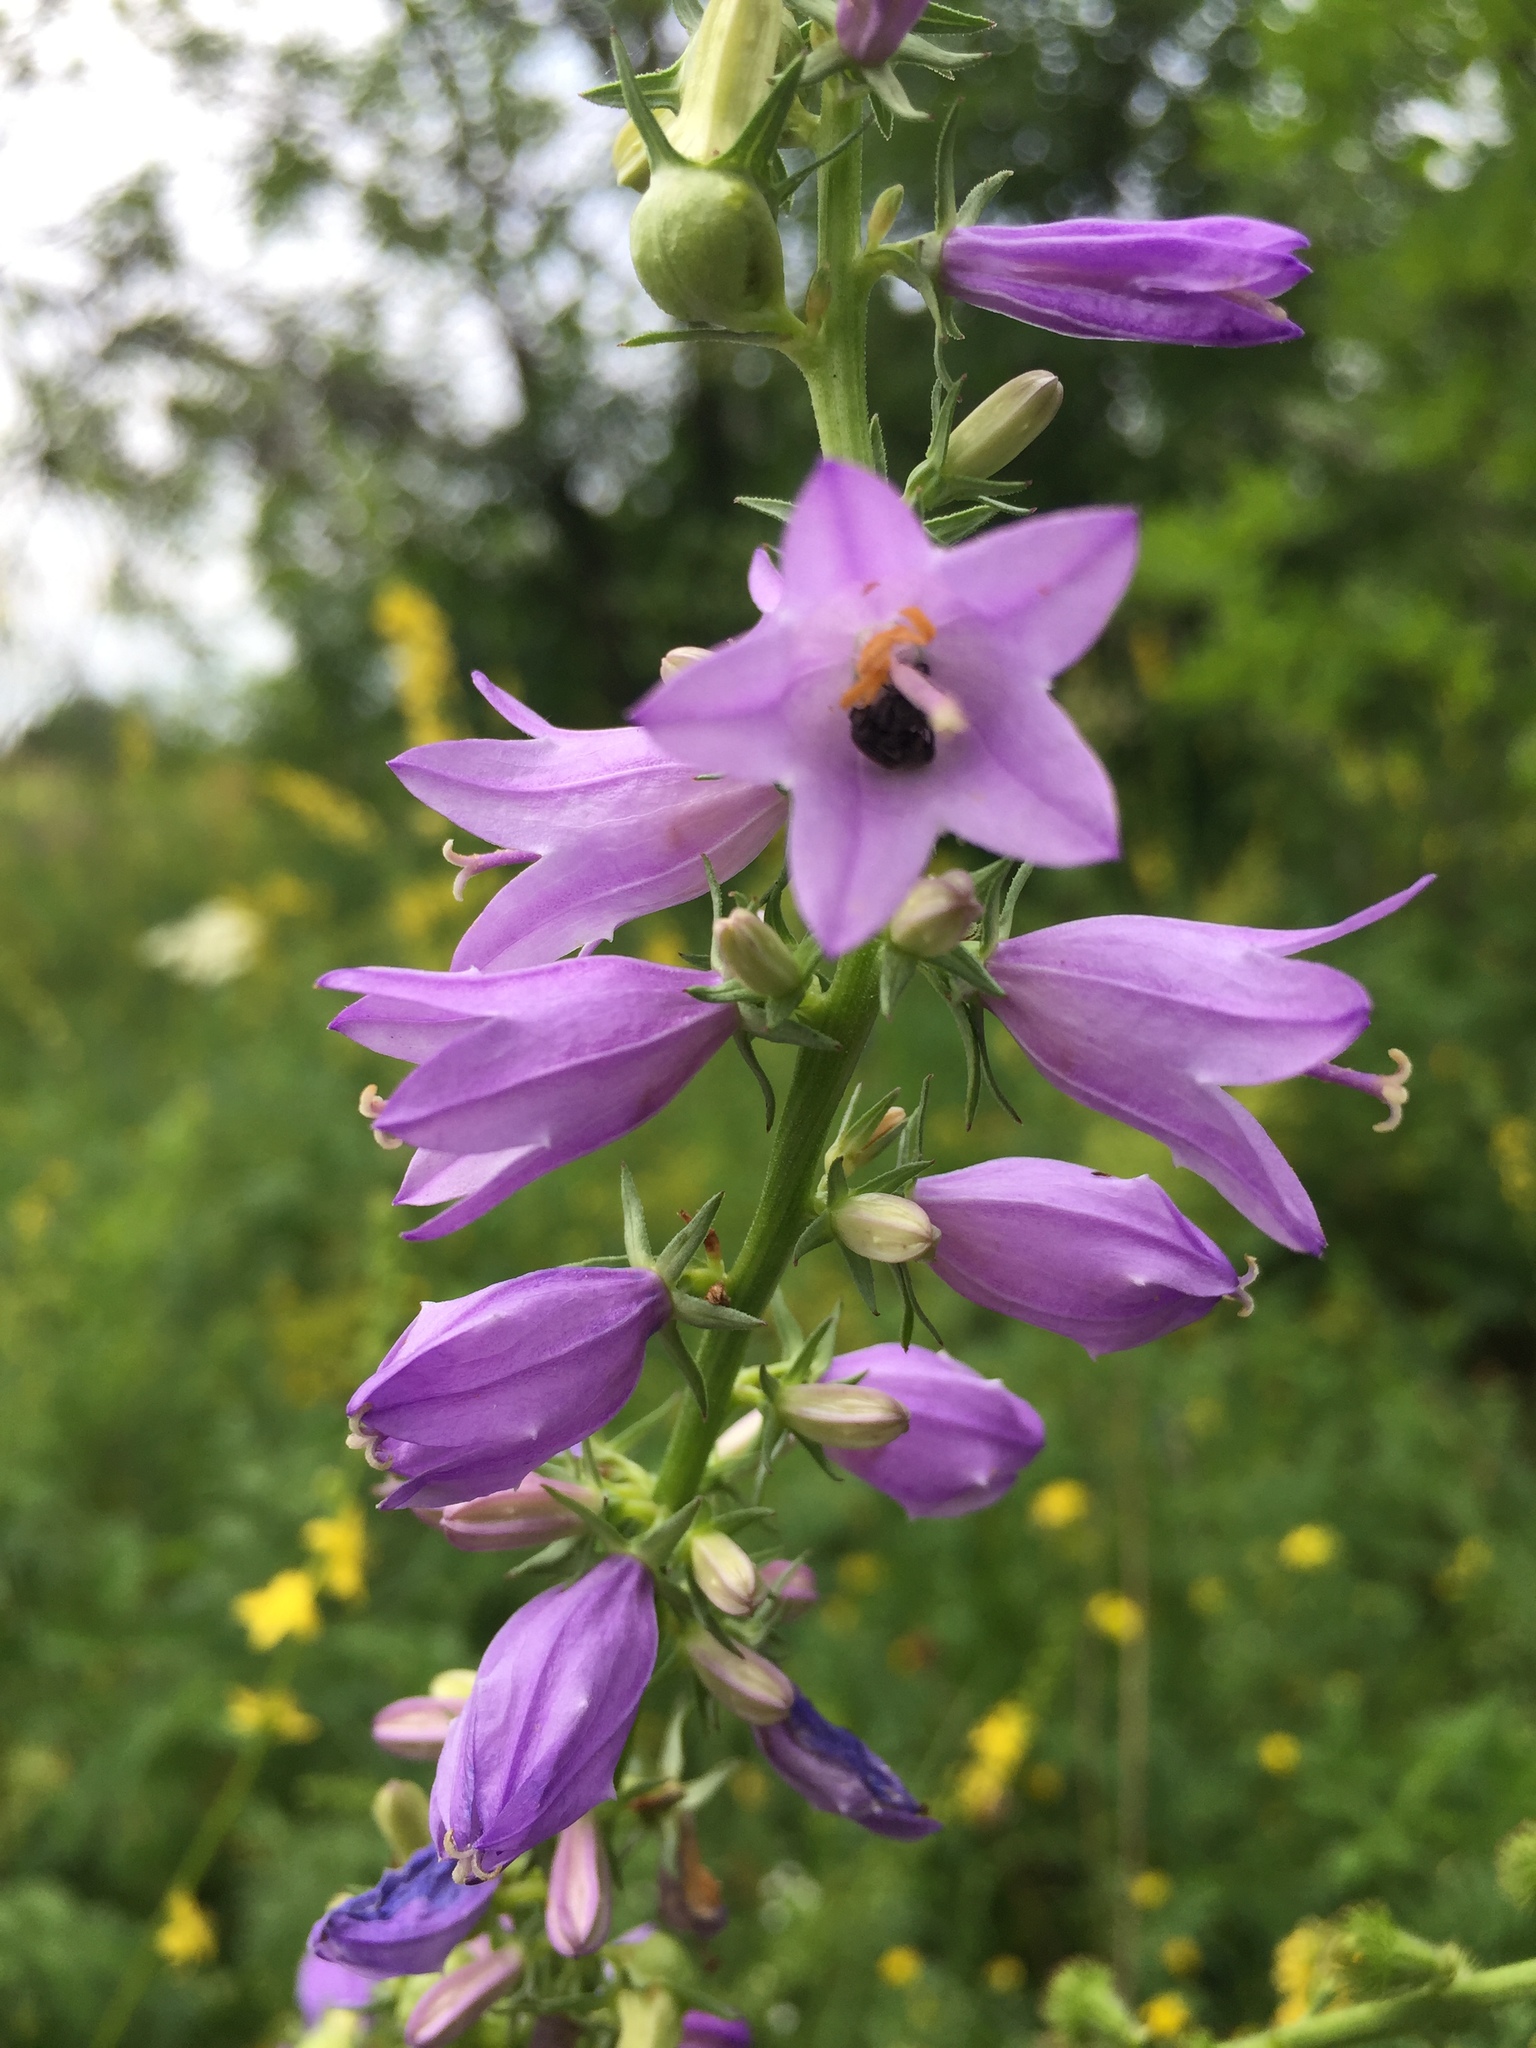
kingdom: Plantae
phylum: Tracheophyta
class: Magnoliopsida
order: Asterales
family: Campanulaceae
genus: Campanula
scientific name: Campanula rapunculoides
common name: Creeping bellflower
